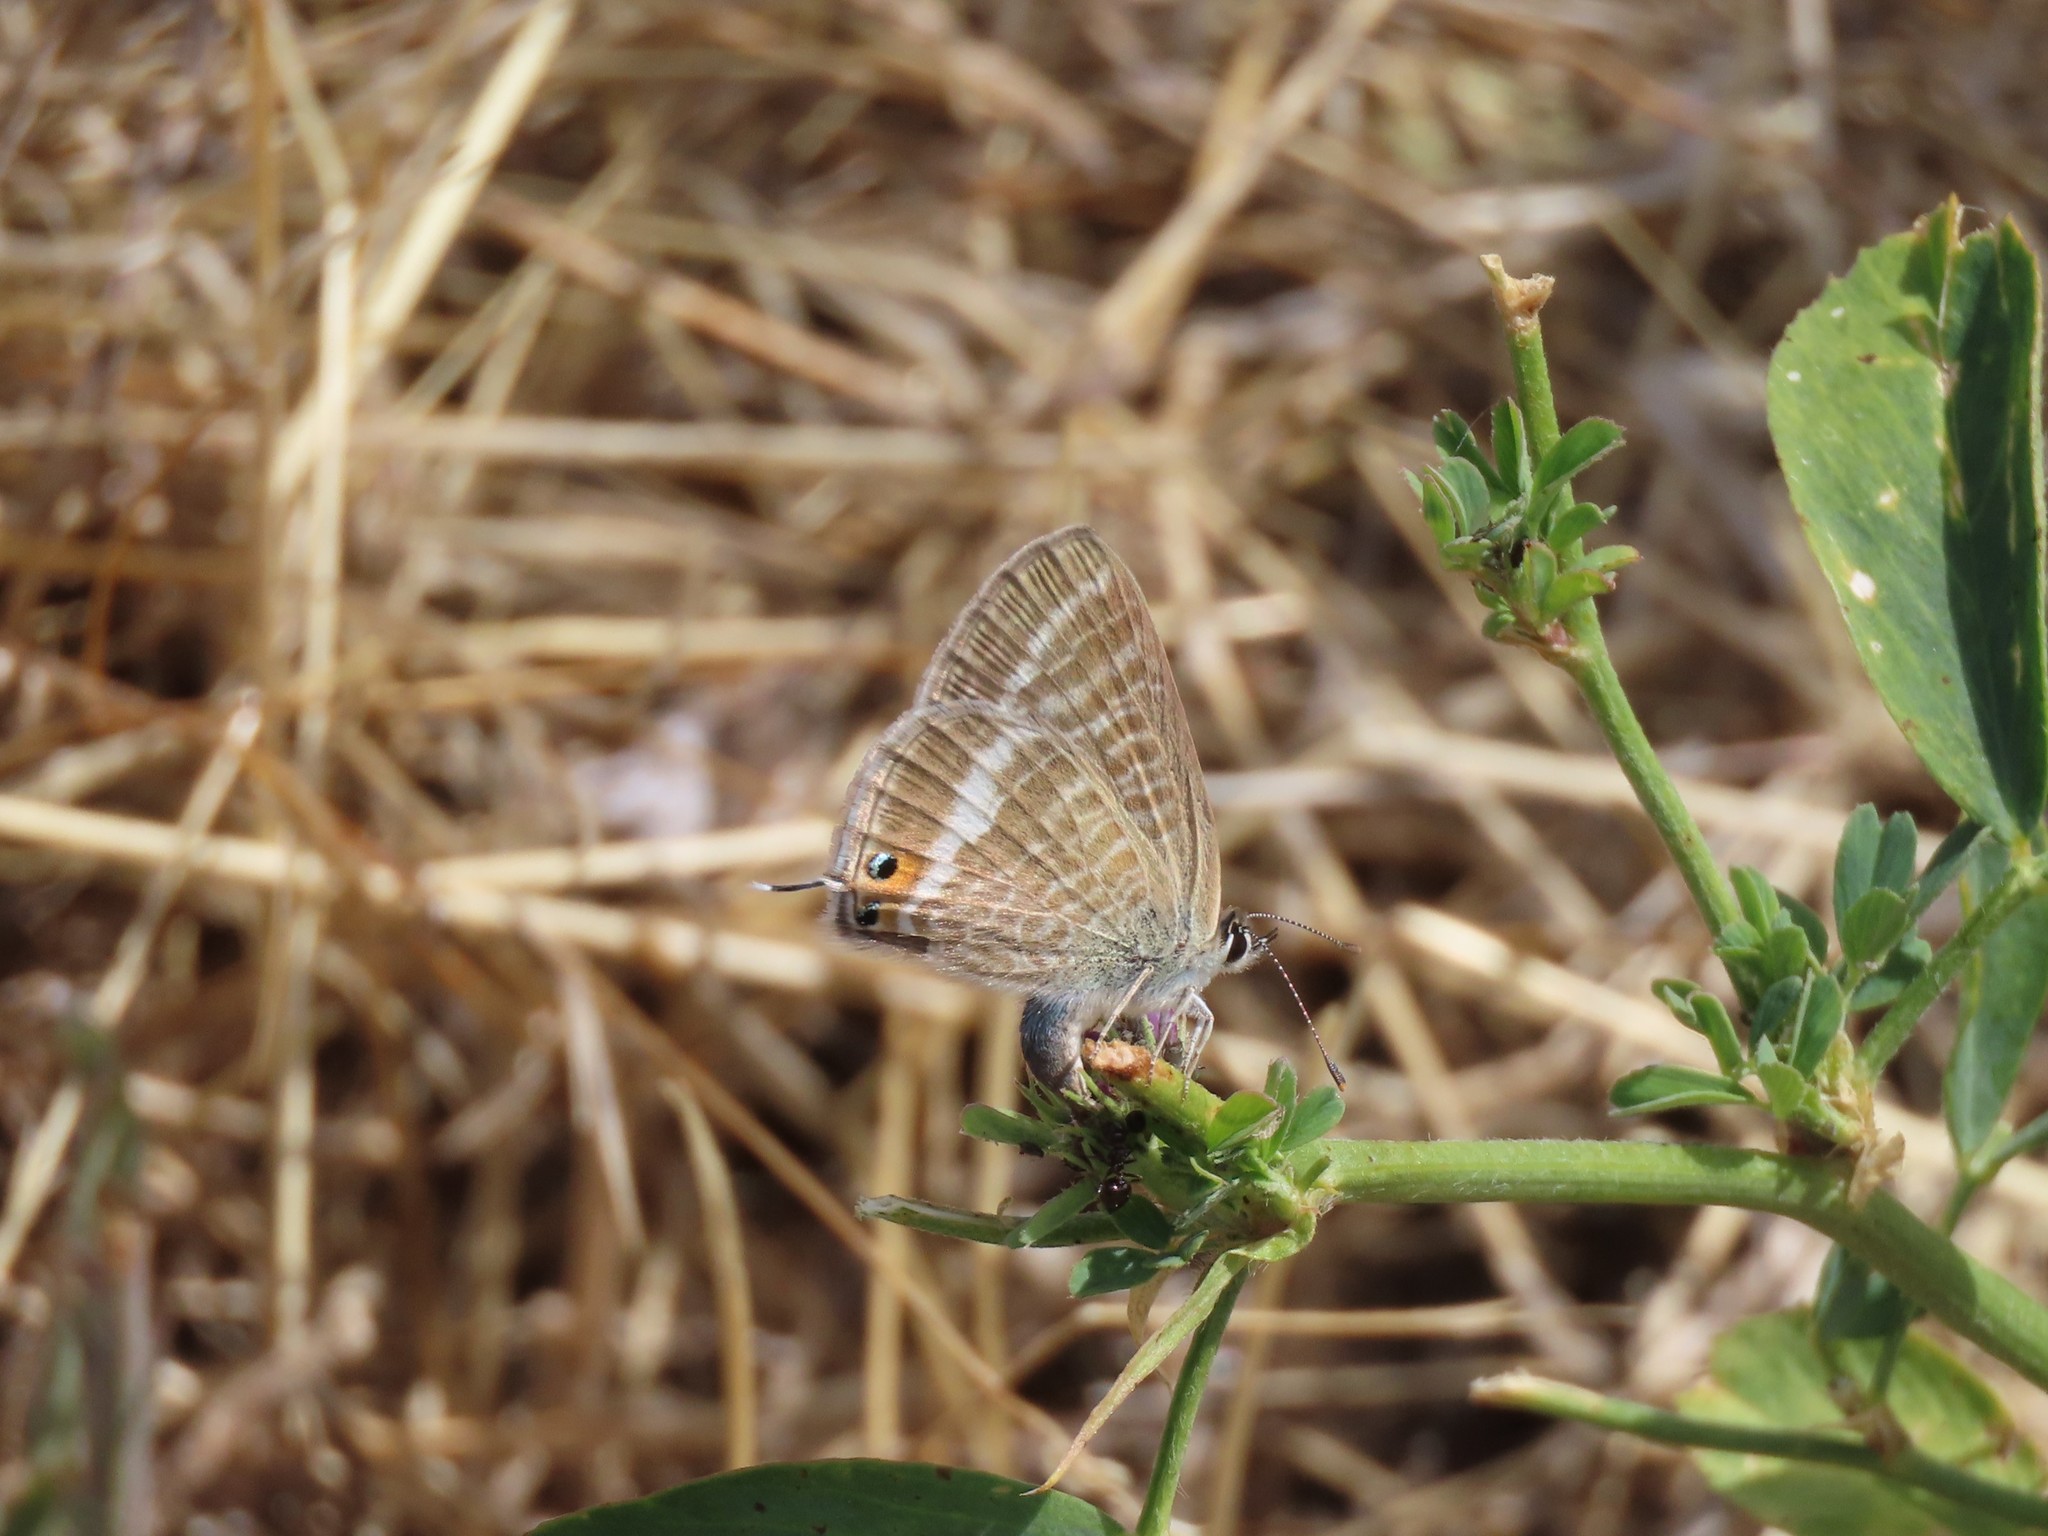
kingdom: Animalia
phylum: Arthropoda
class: Insecta
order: Lepidoptera
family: Lycaenidae
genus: Lampides
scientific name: Lampides boeticus
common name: Long-tailed blue
